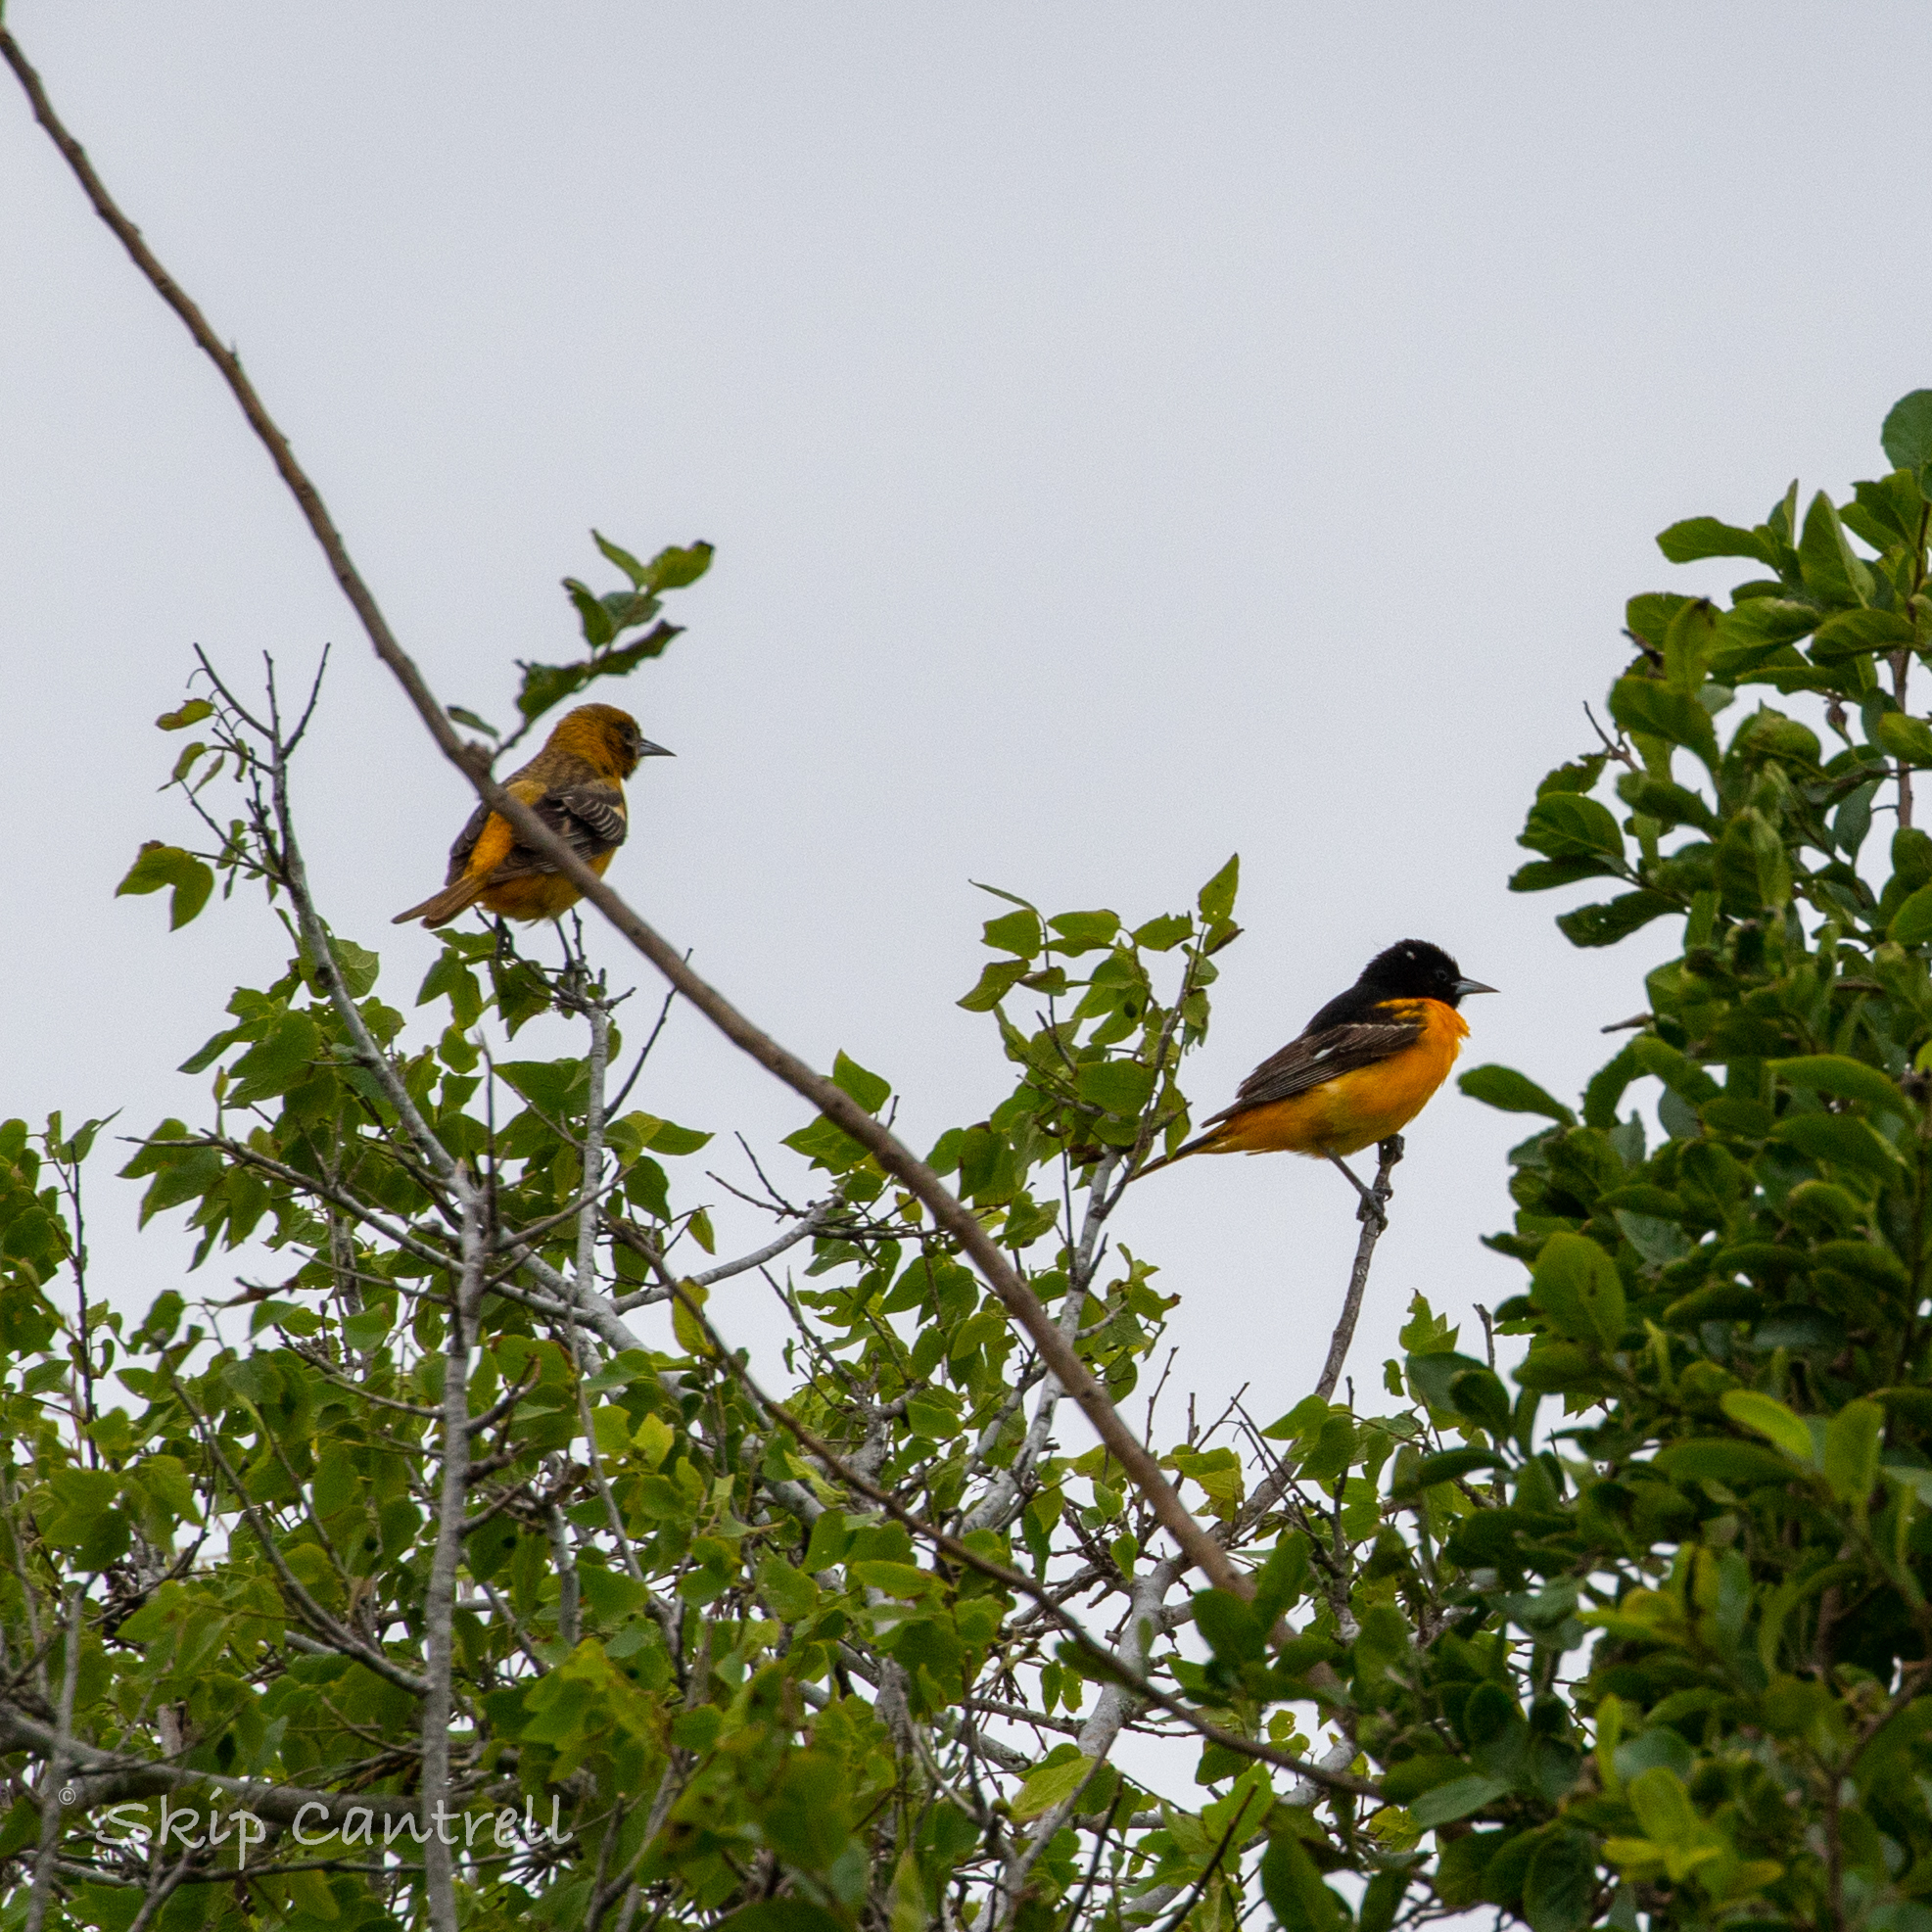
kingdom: Animalia
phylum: Chordata
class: Aves
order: Passeriformes
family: Icteridae
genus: Icterus
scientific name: Icterus galbula
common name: Baltimore oriole
